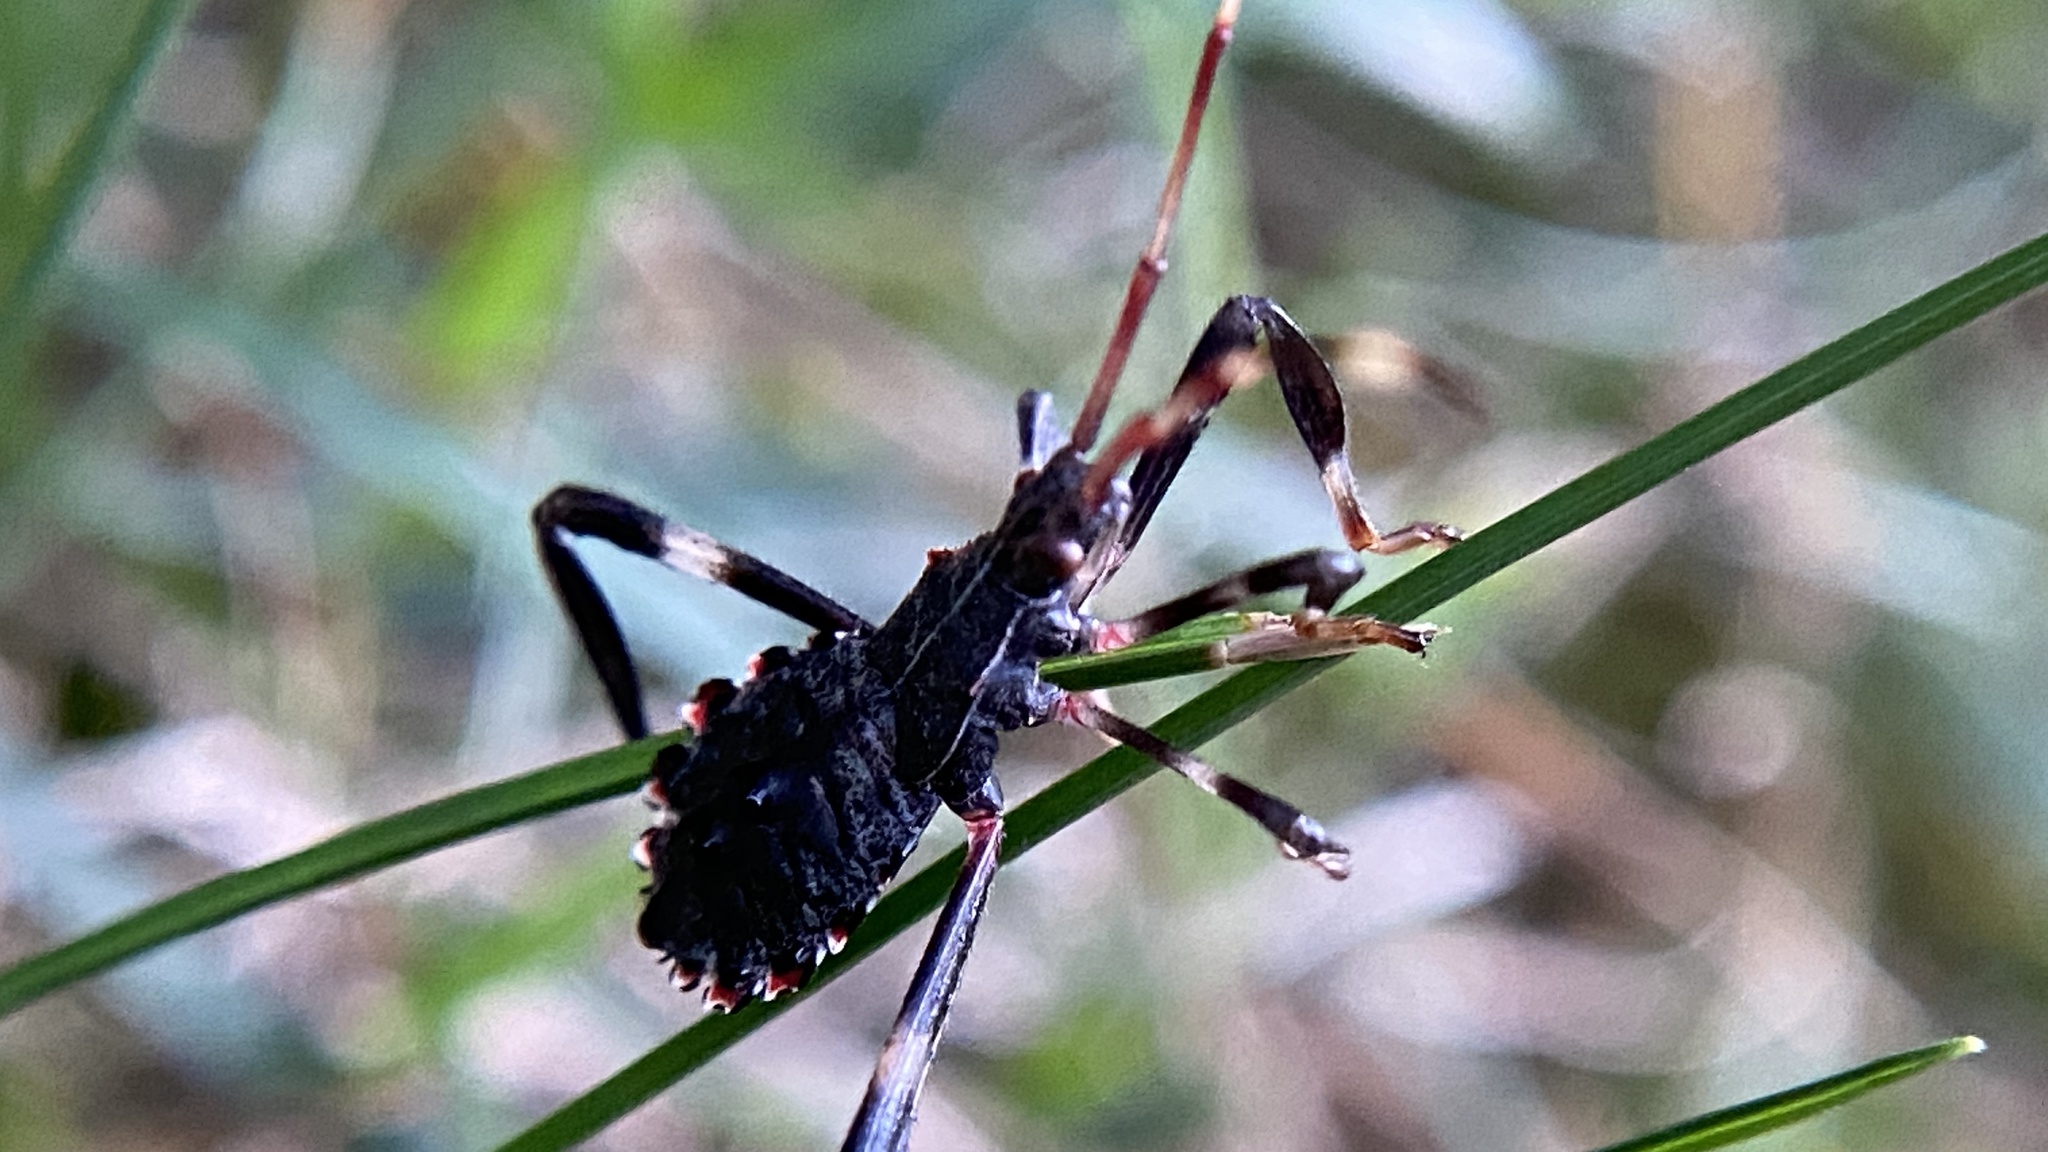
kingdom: Animalia
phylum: Arthropoda
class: Insecta
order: Hemiptera
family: Coreidae
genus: Acanthocephala
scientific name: Acanthocephala terminalis
